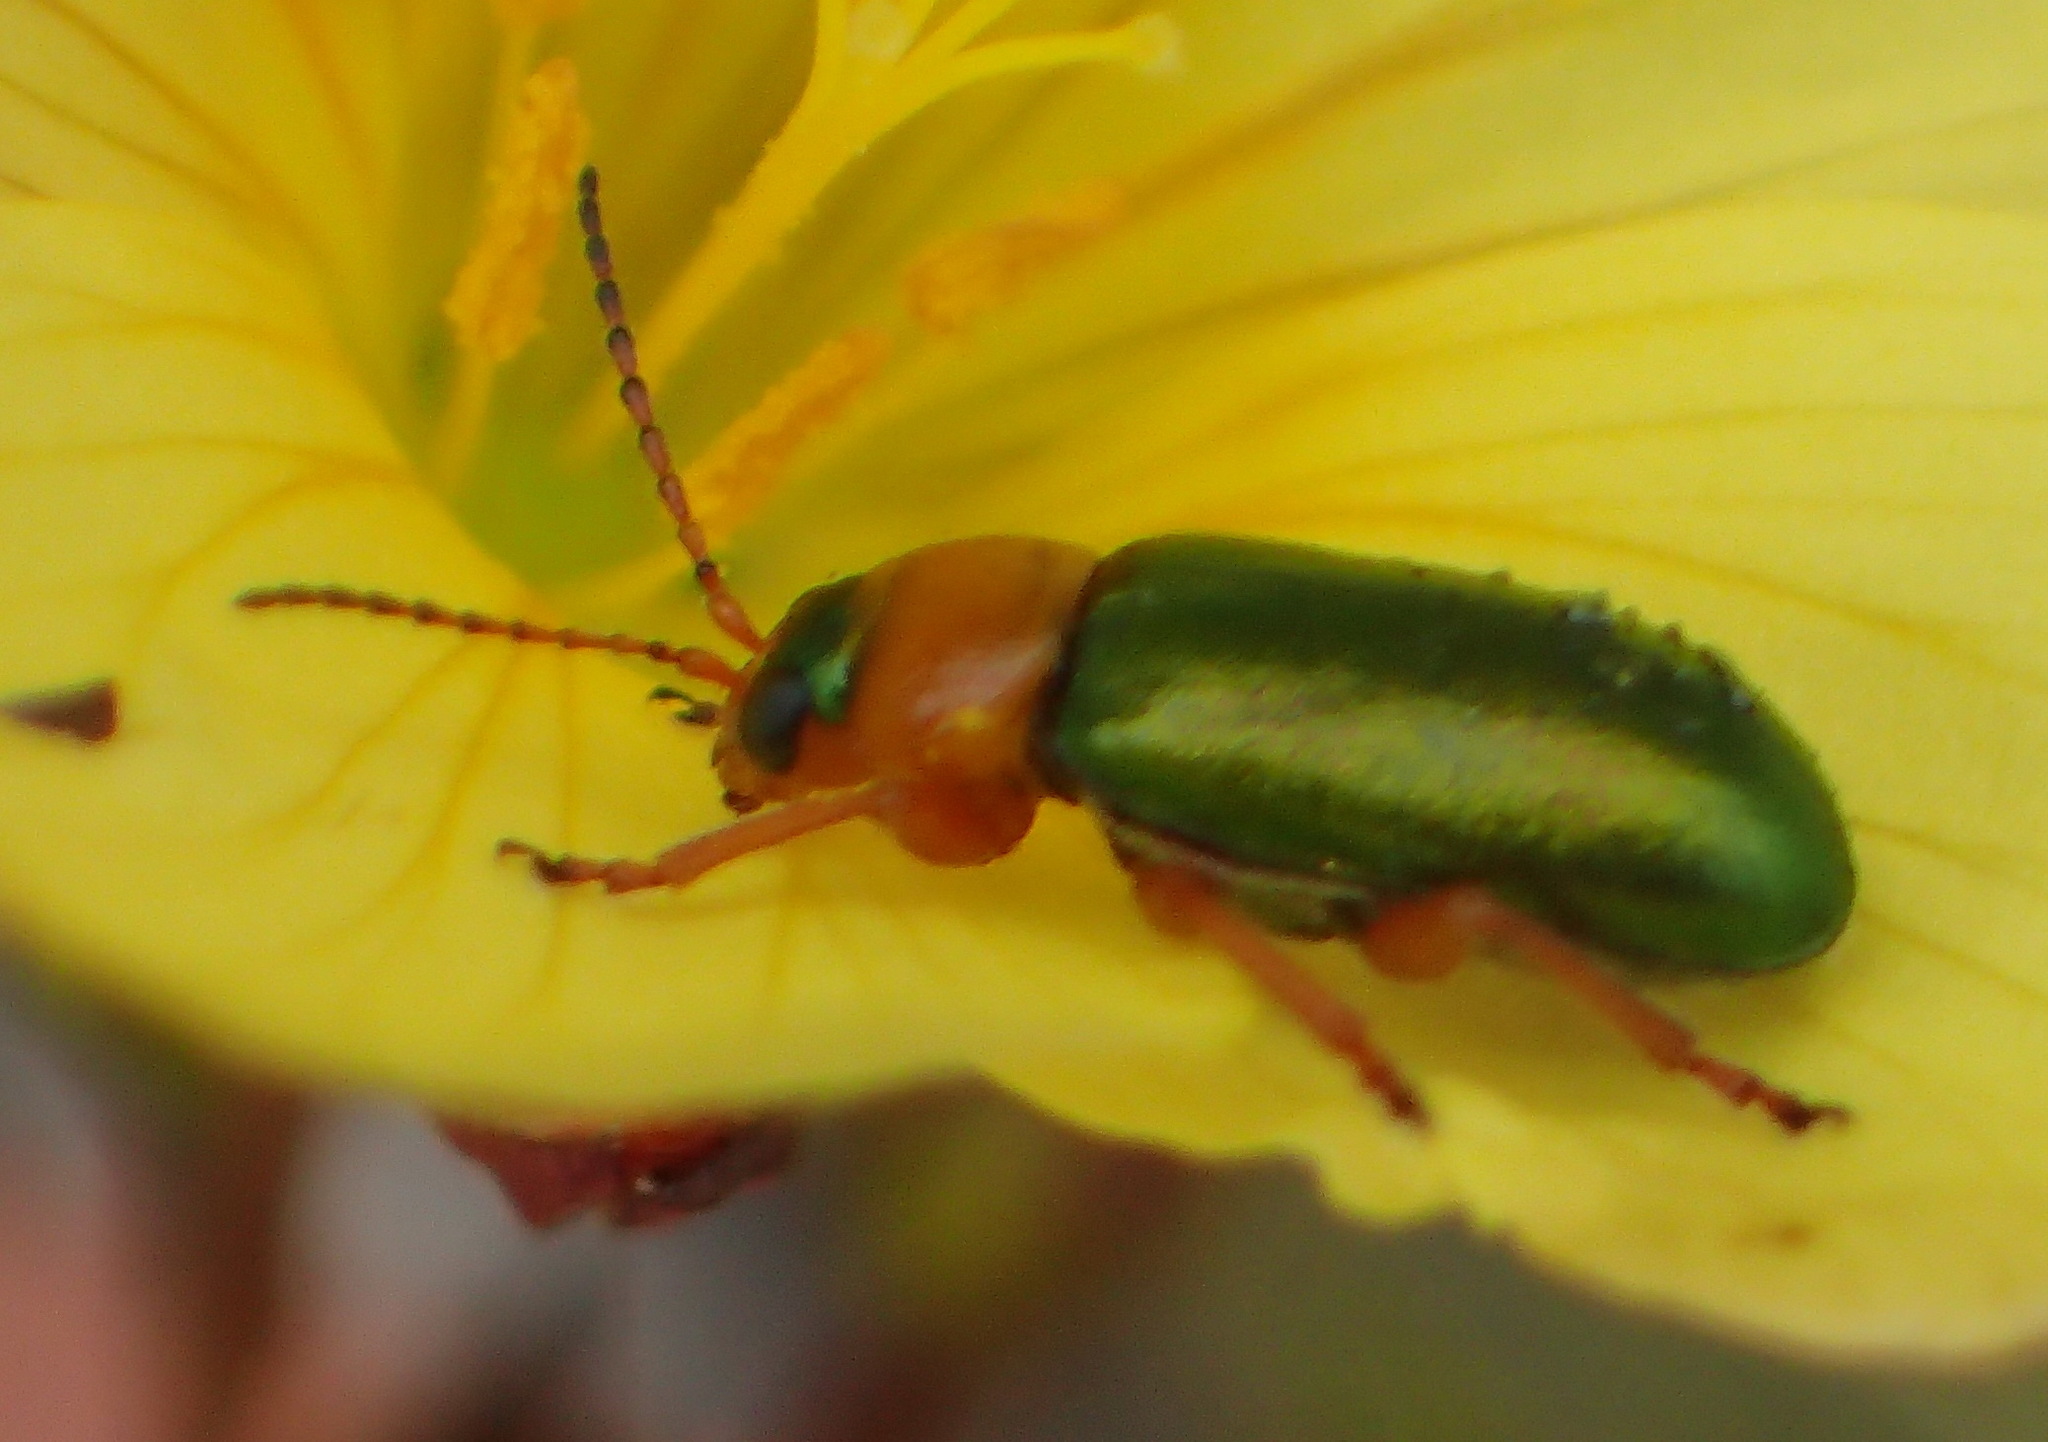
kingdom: Animalia
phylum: Arthropoda
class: Insecta
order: Coleoptera
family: Chrysomelidae
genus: Palaeophylia
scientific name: Palaeophylia
